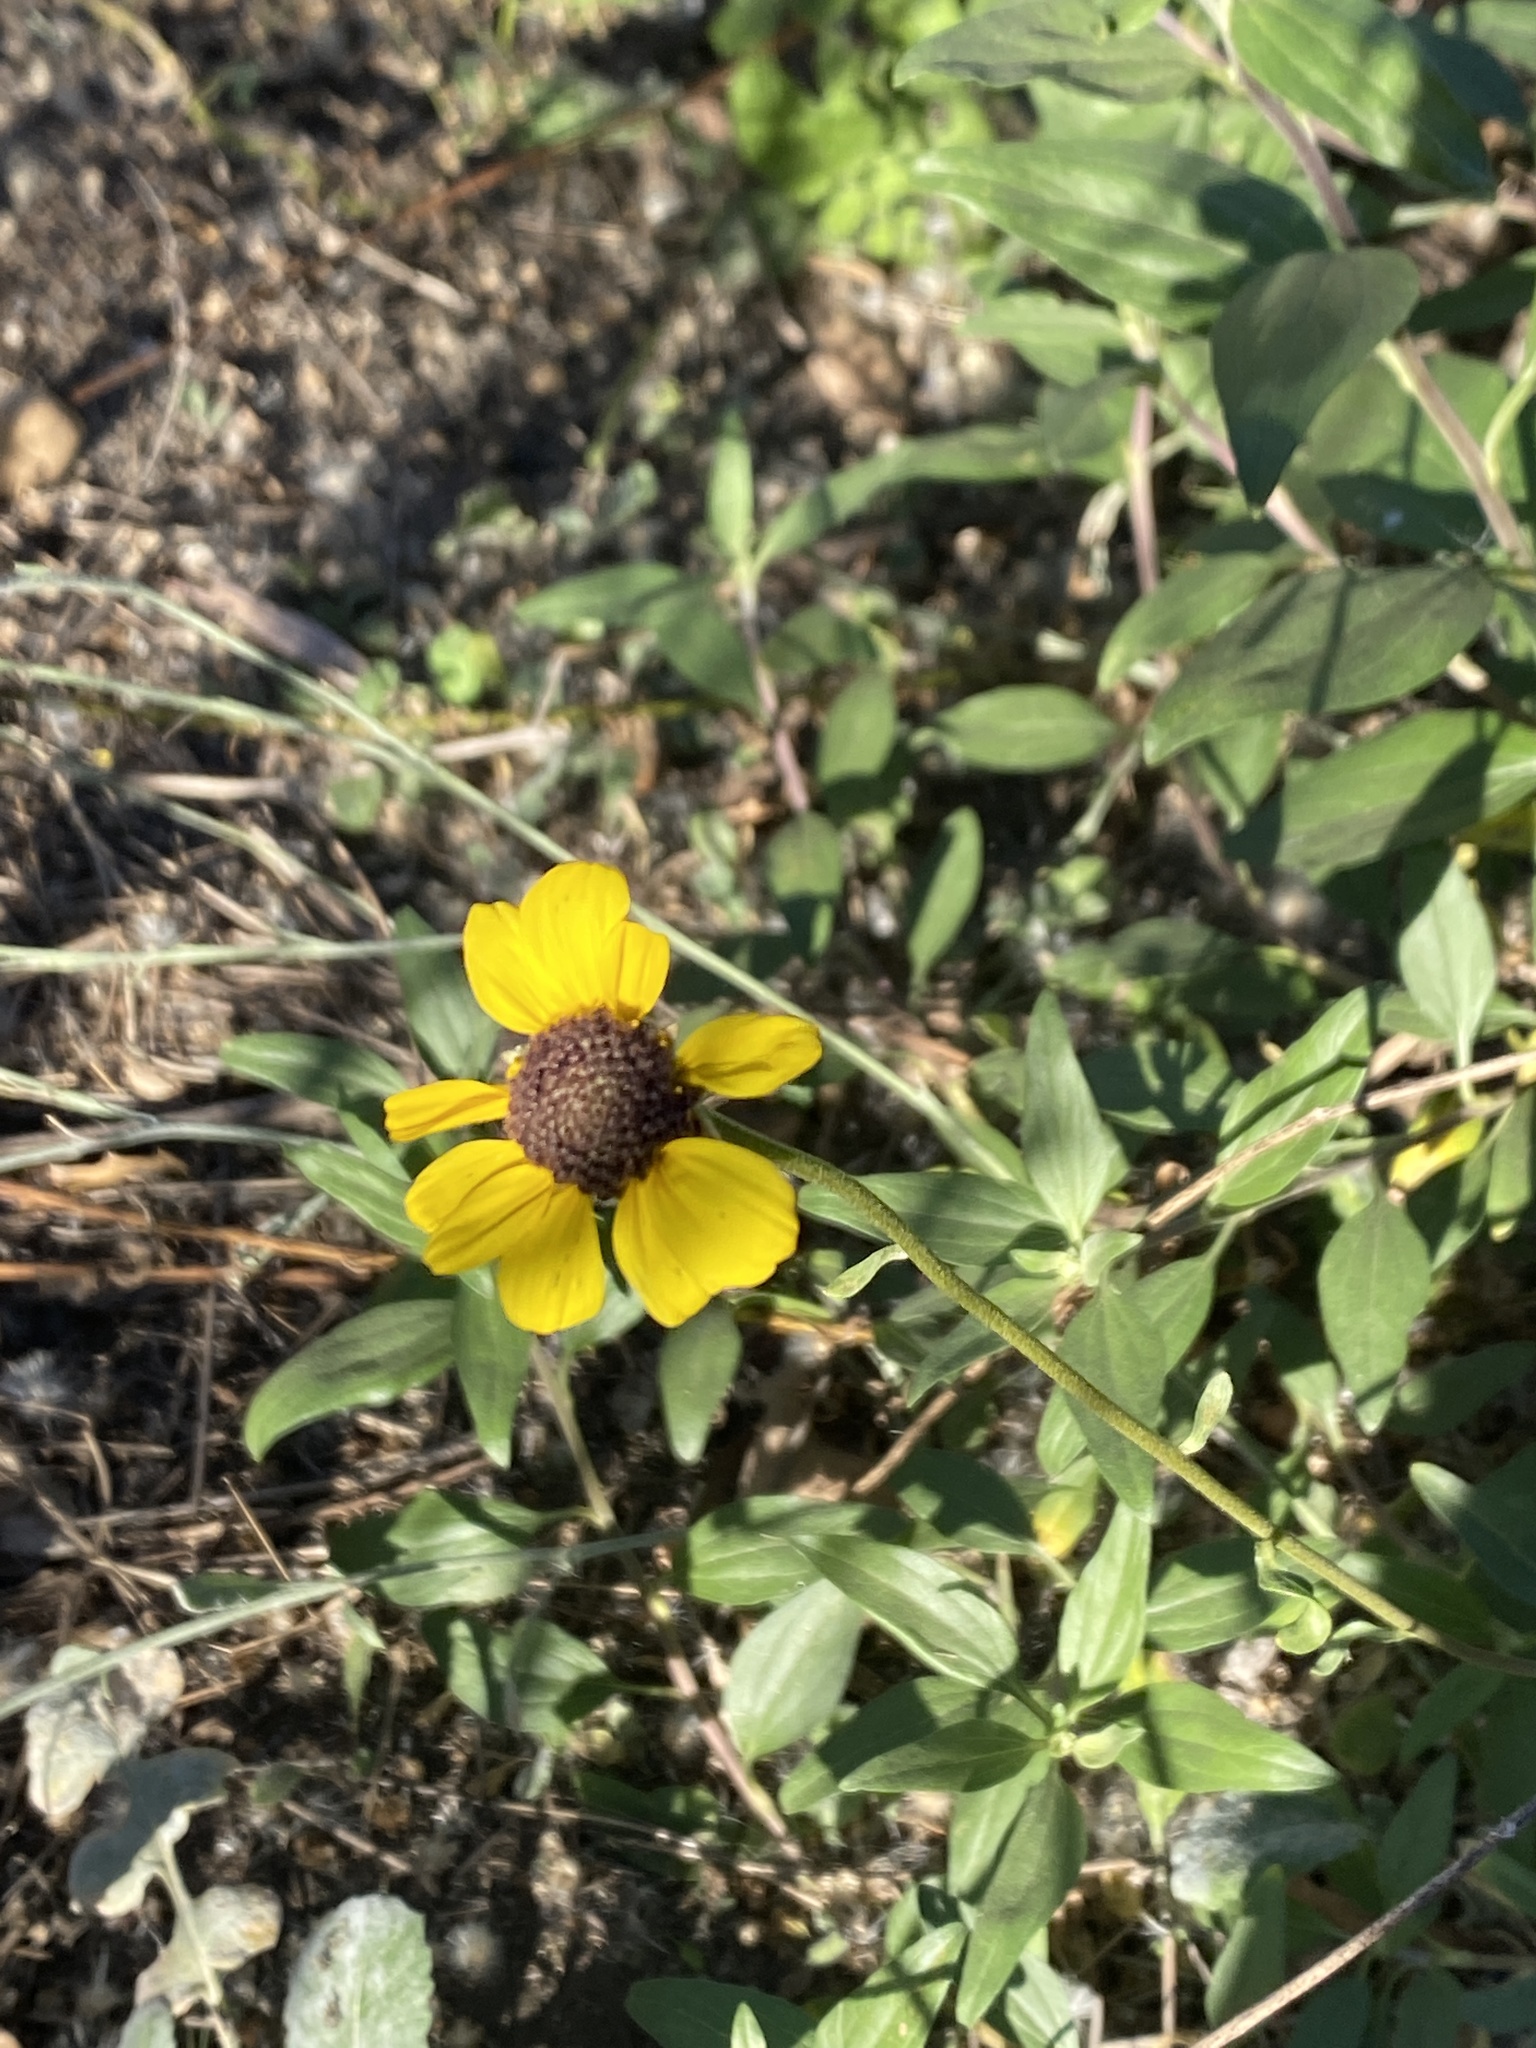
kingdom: Plantae
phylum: Tracheophyta
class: Magnoliopsida
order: Asterales
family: Asteraceae
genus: Encelia
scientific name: Encelia californica
